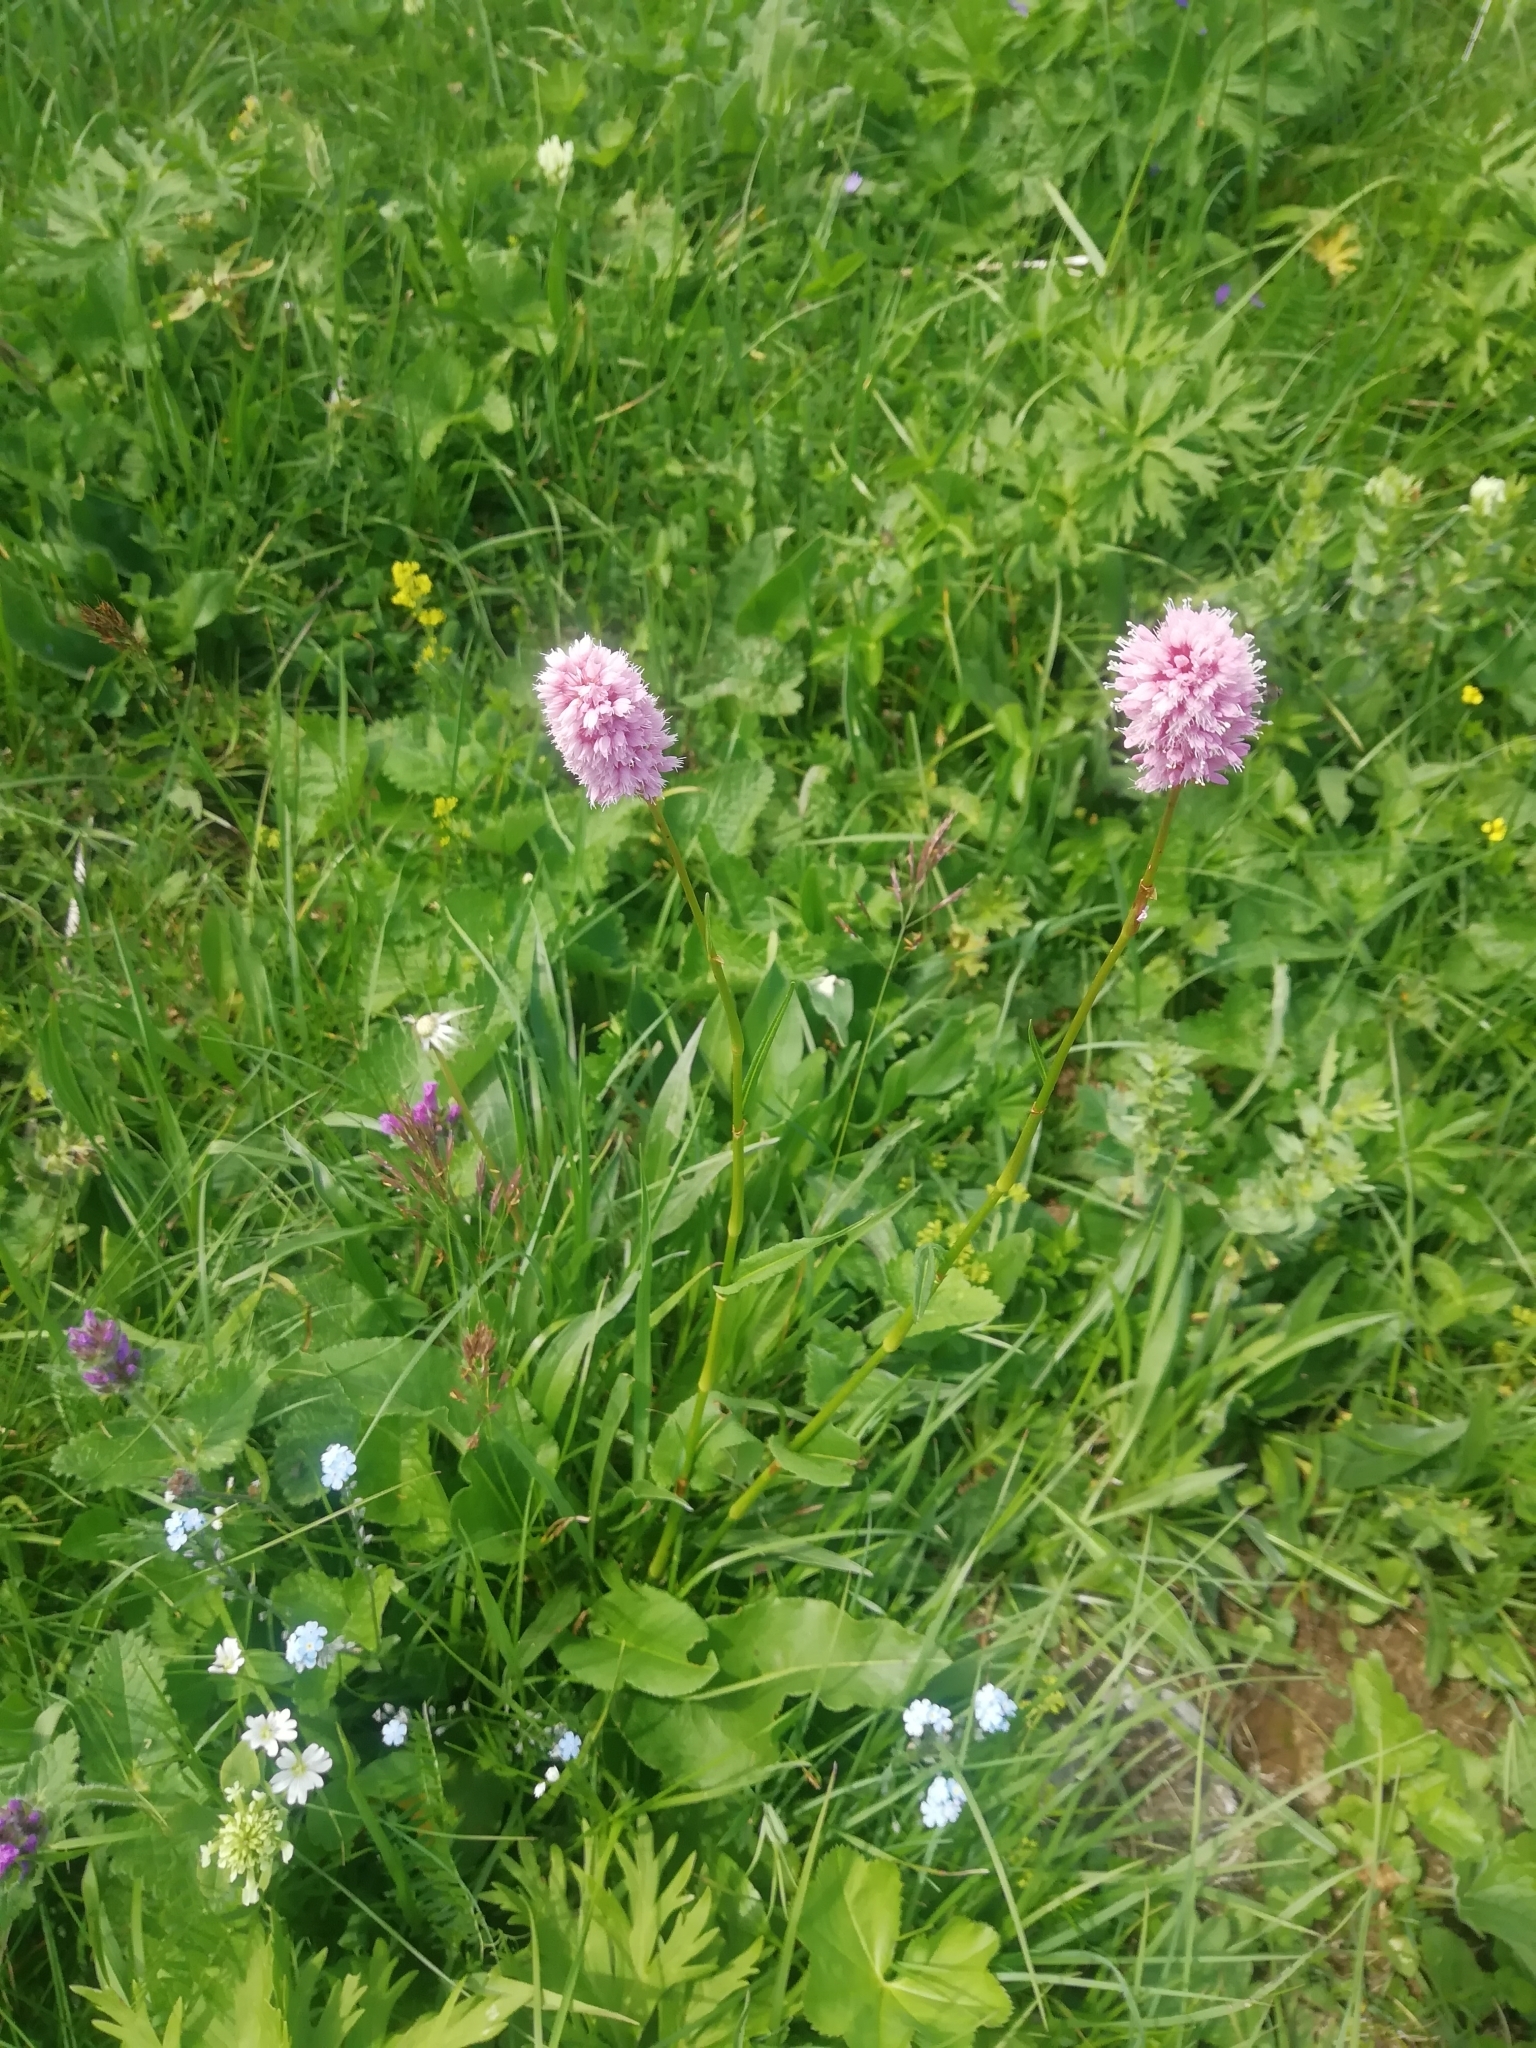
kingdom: Plantae
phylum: Tracheophyta
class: Magnoliopsida
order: Caryophyllales
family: Polygonaceae
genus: Bistorta
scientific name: Bistorta carnea
